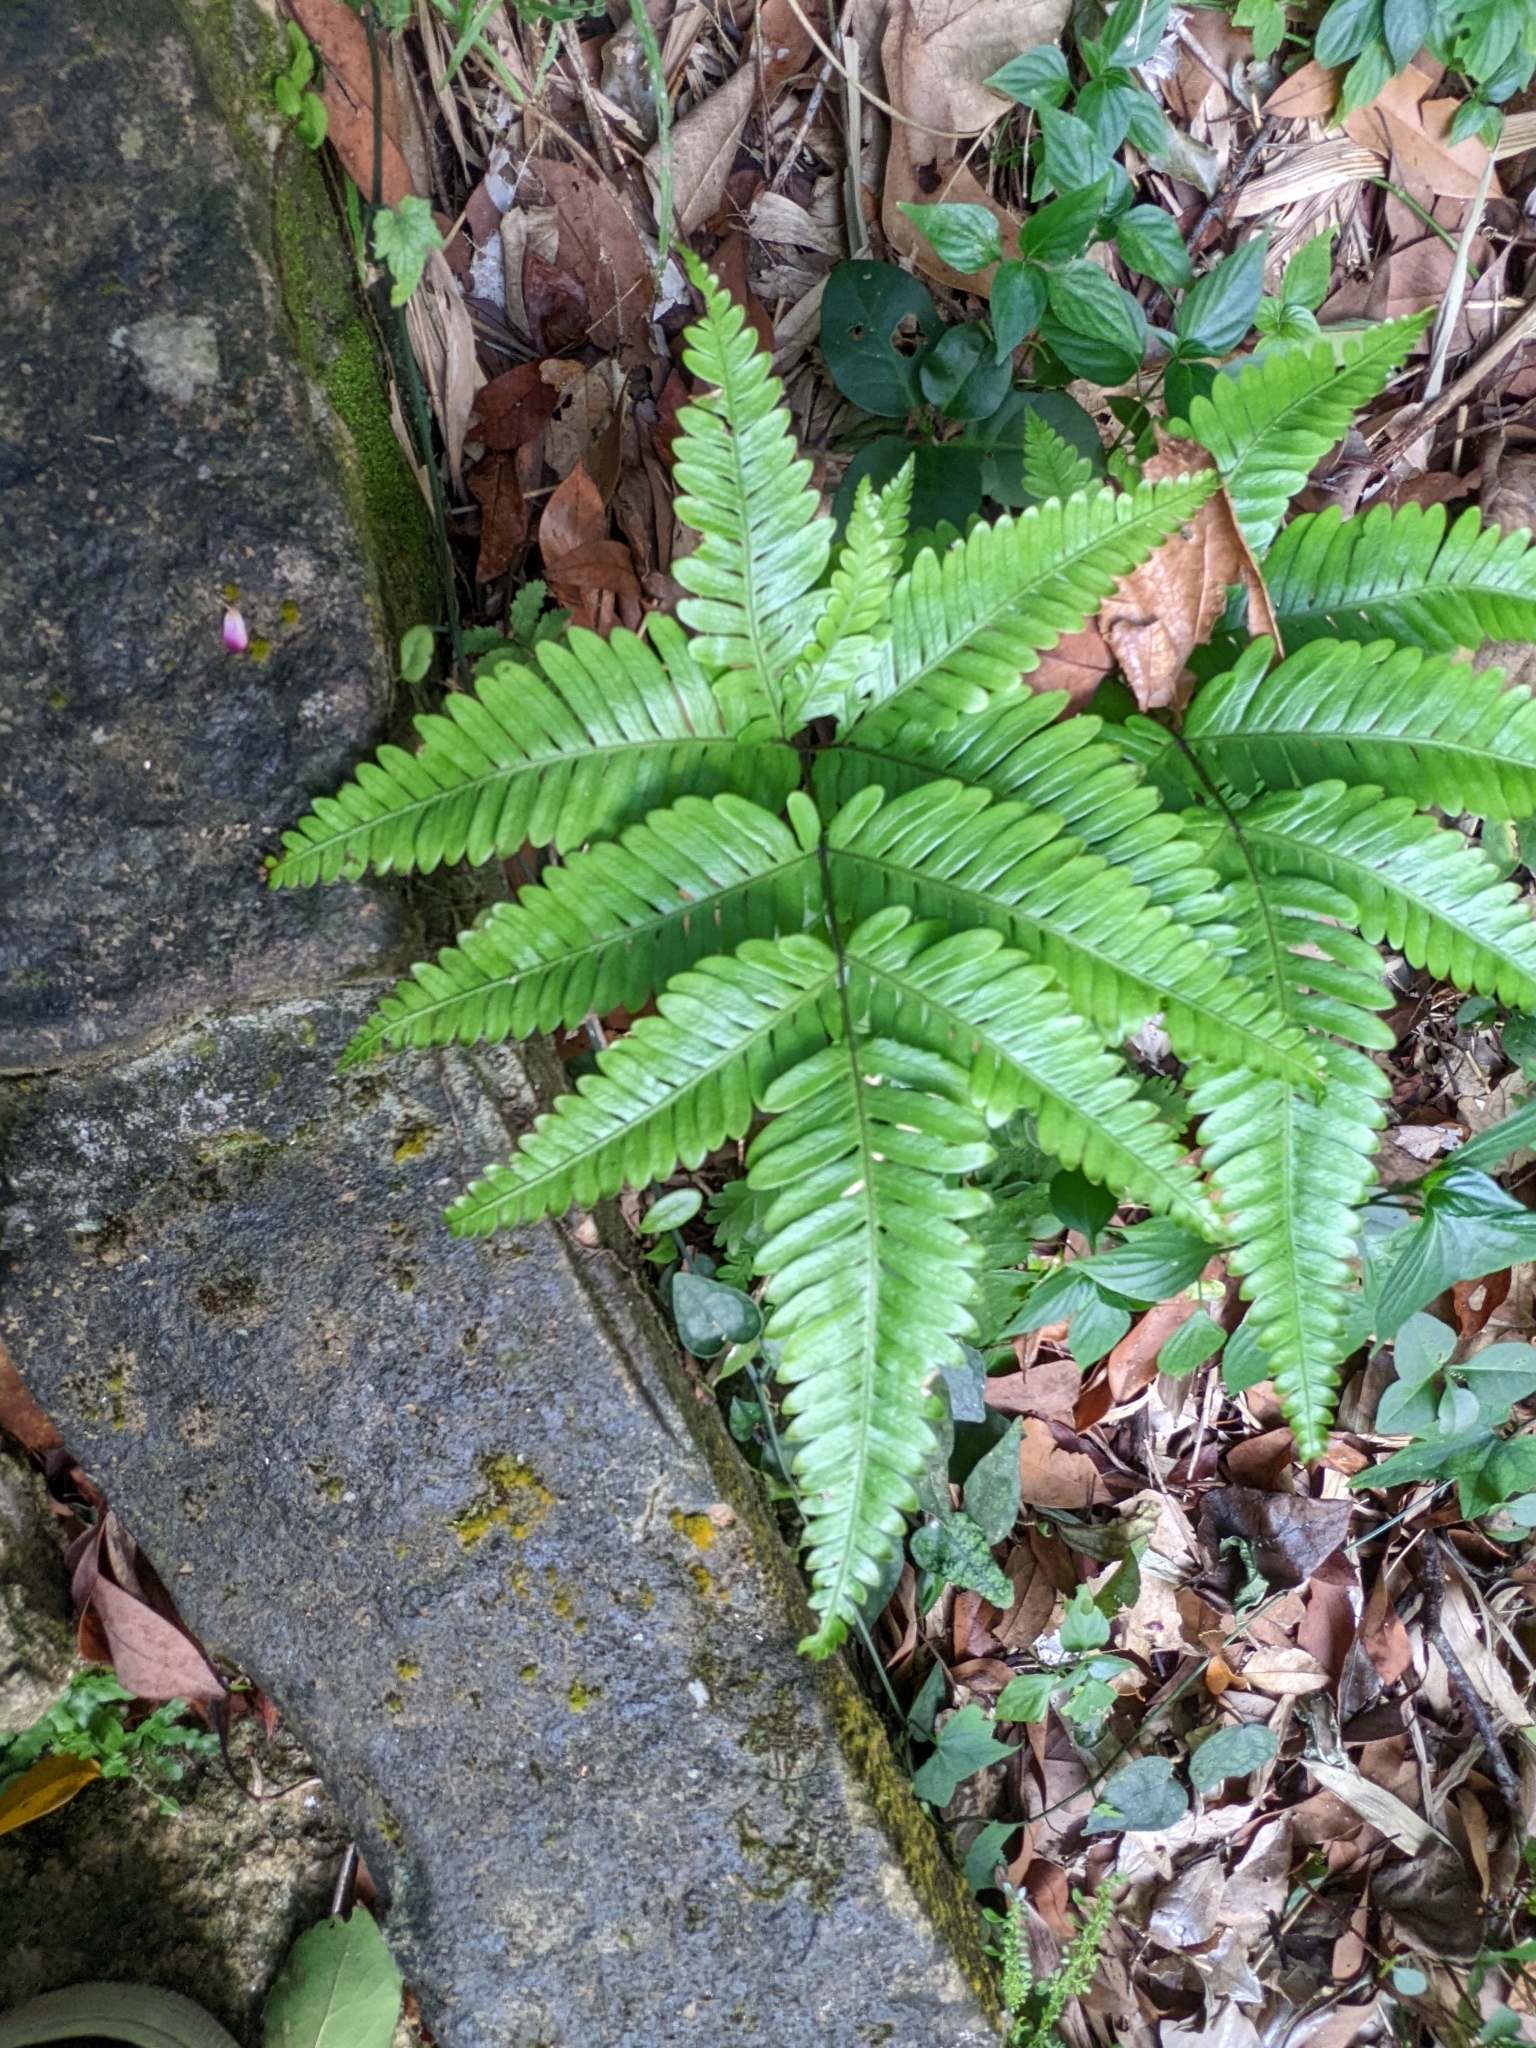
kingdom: Plantae
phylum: Tracheophyta
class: Polypodiopsida
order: Polypodiales
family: Pteridaceae
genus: Pteris
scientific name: Pteris fauriei
